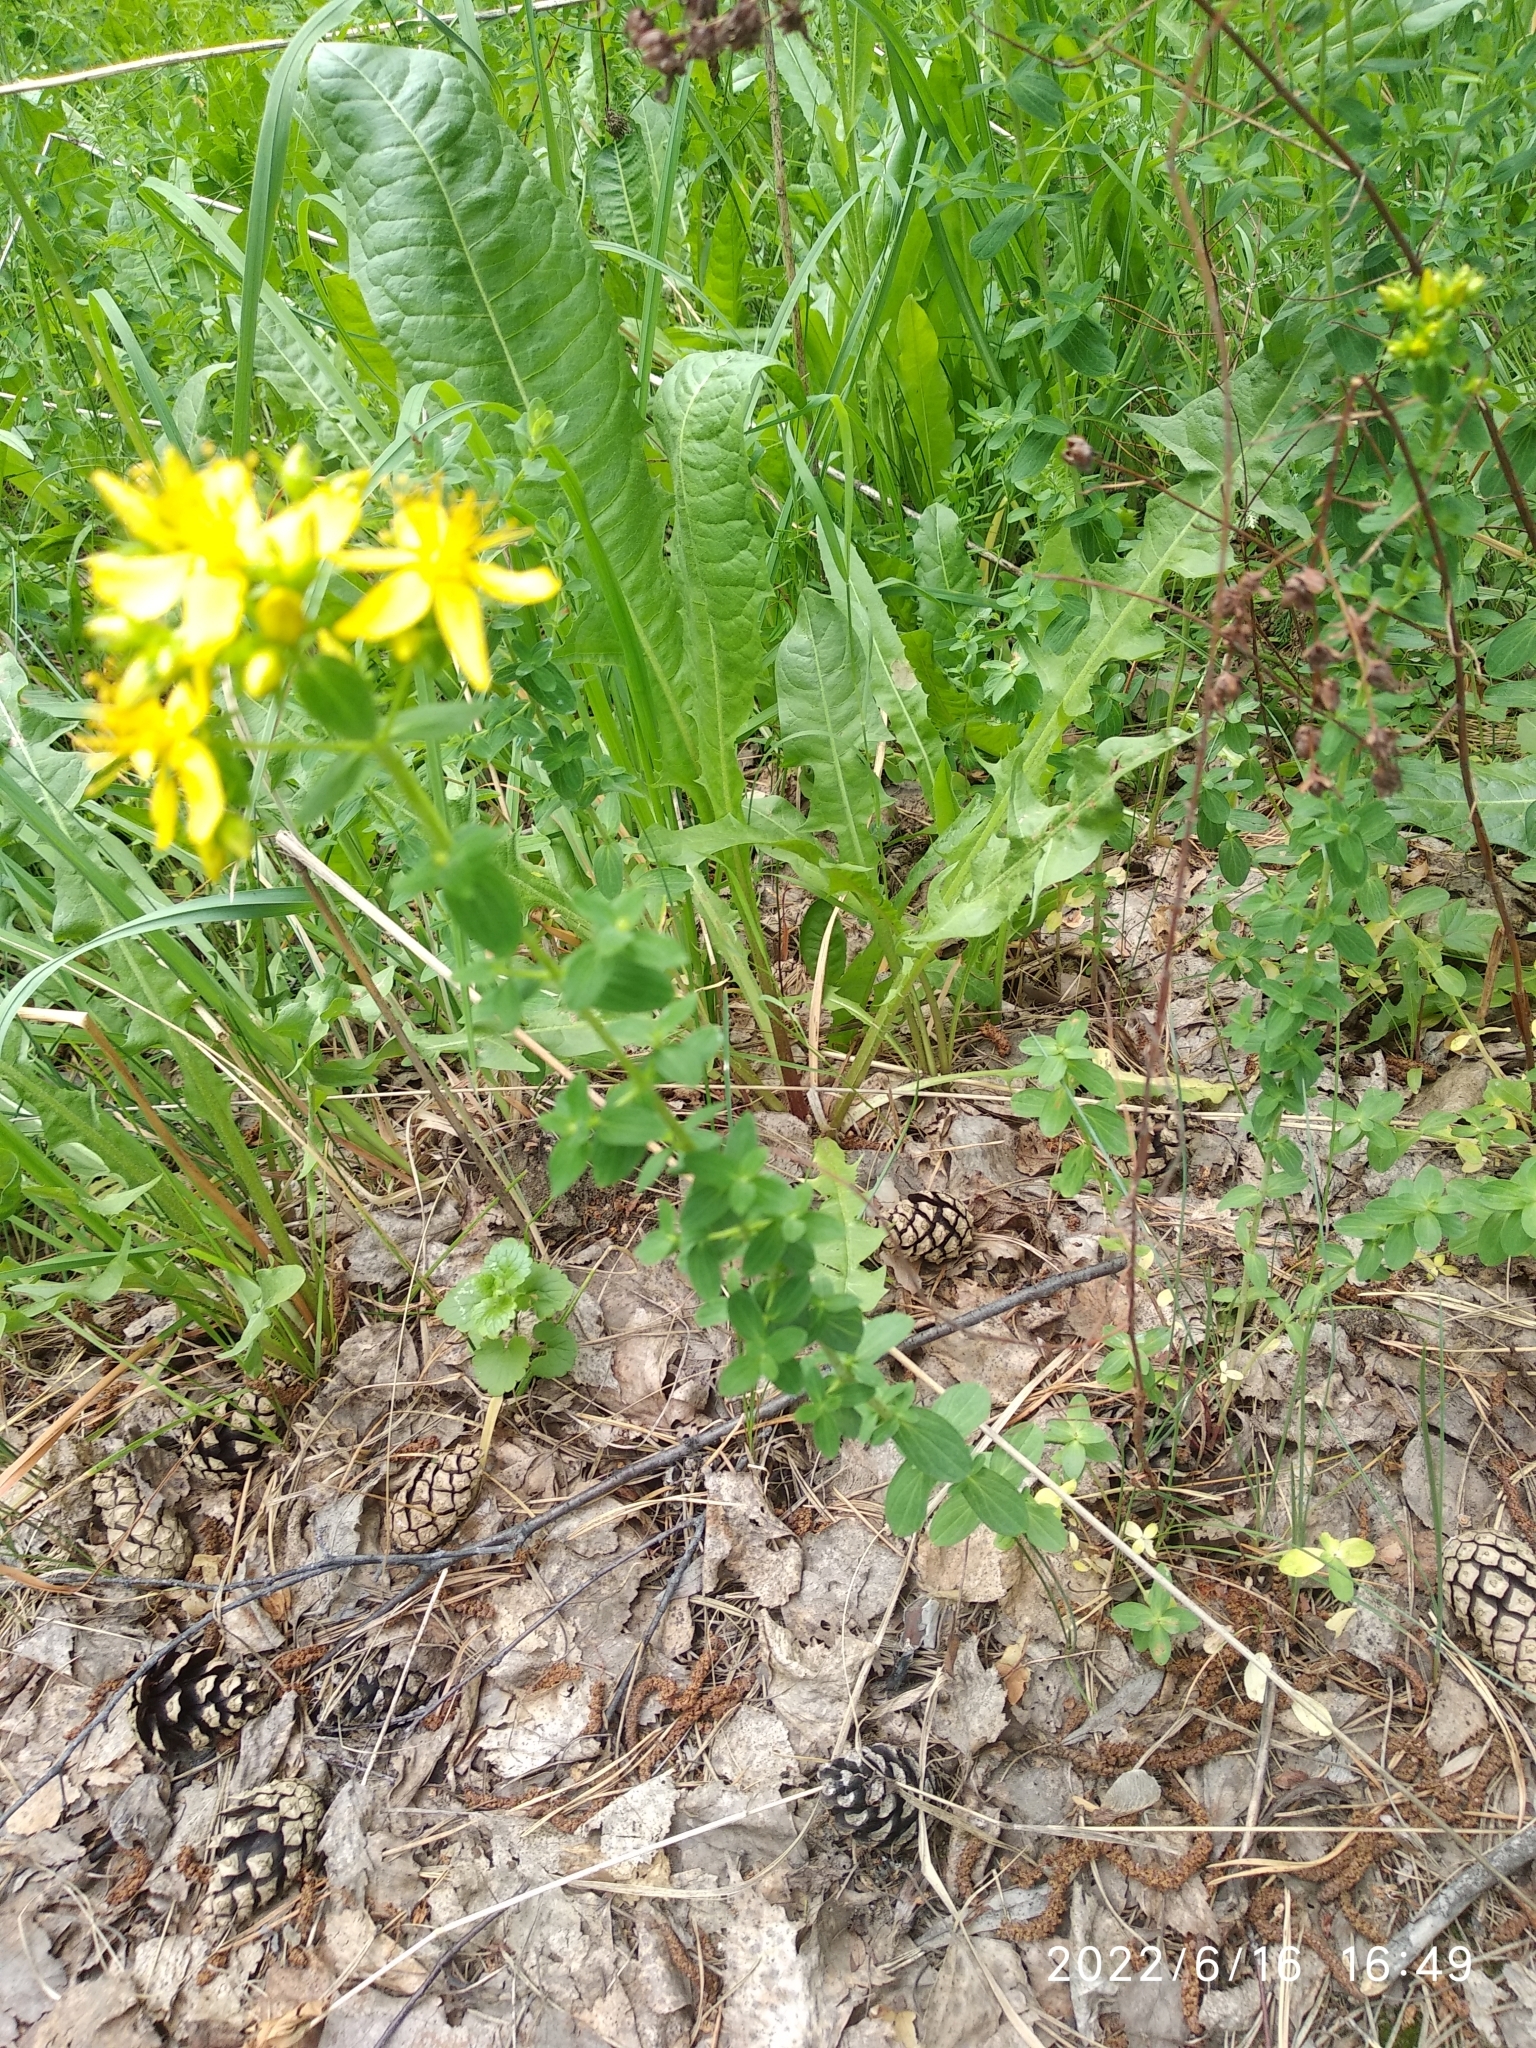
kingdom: Plantae
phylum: Tracheophyta
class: Magnoliopsida
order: Malpighiales
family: Hypericaceae
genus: Hypericum
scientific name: Hypericum perforatum
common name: Common st. johnswort
